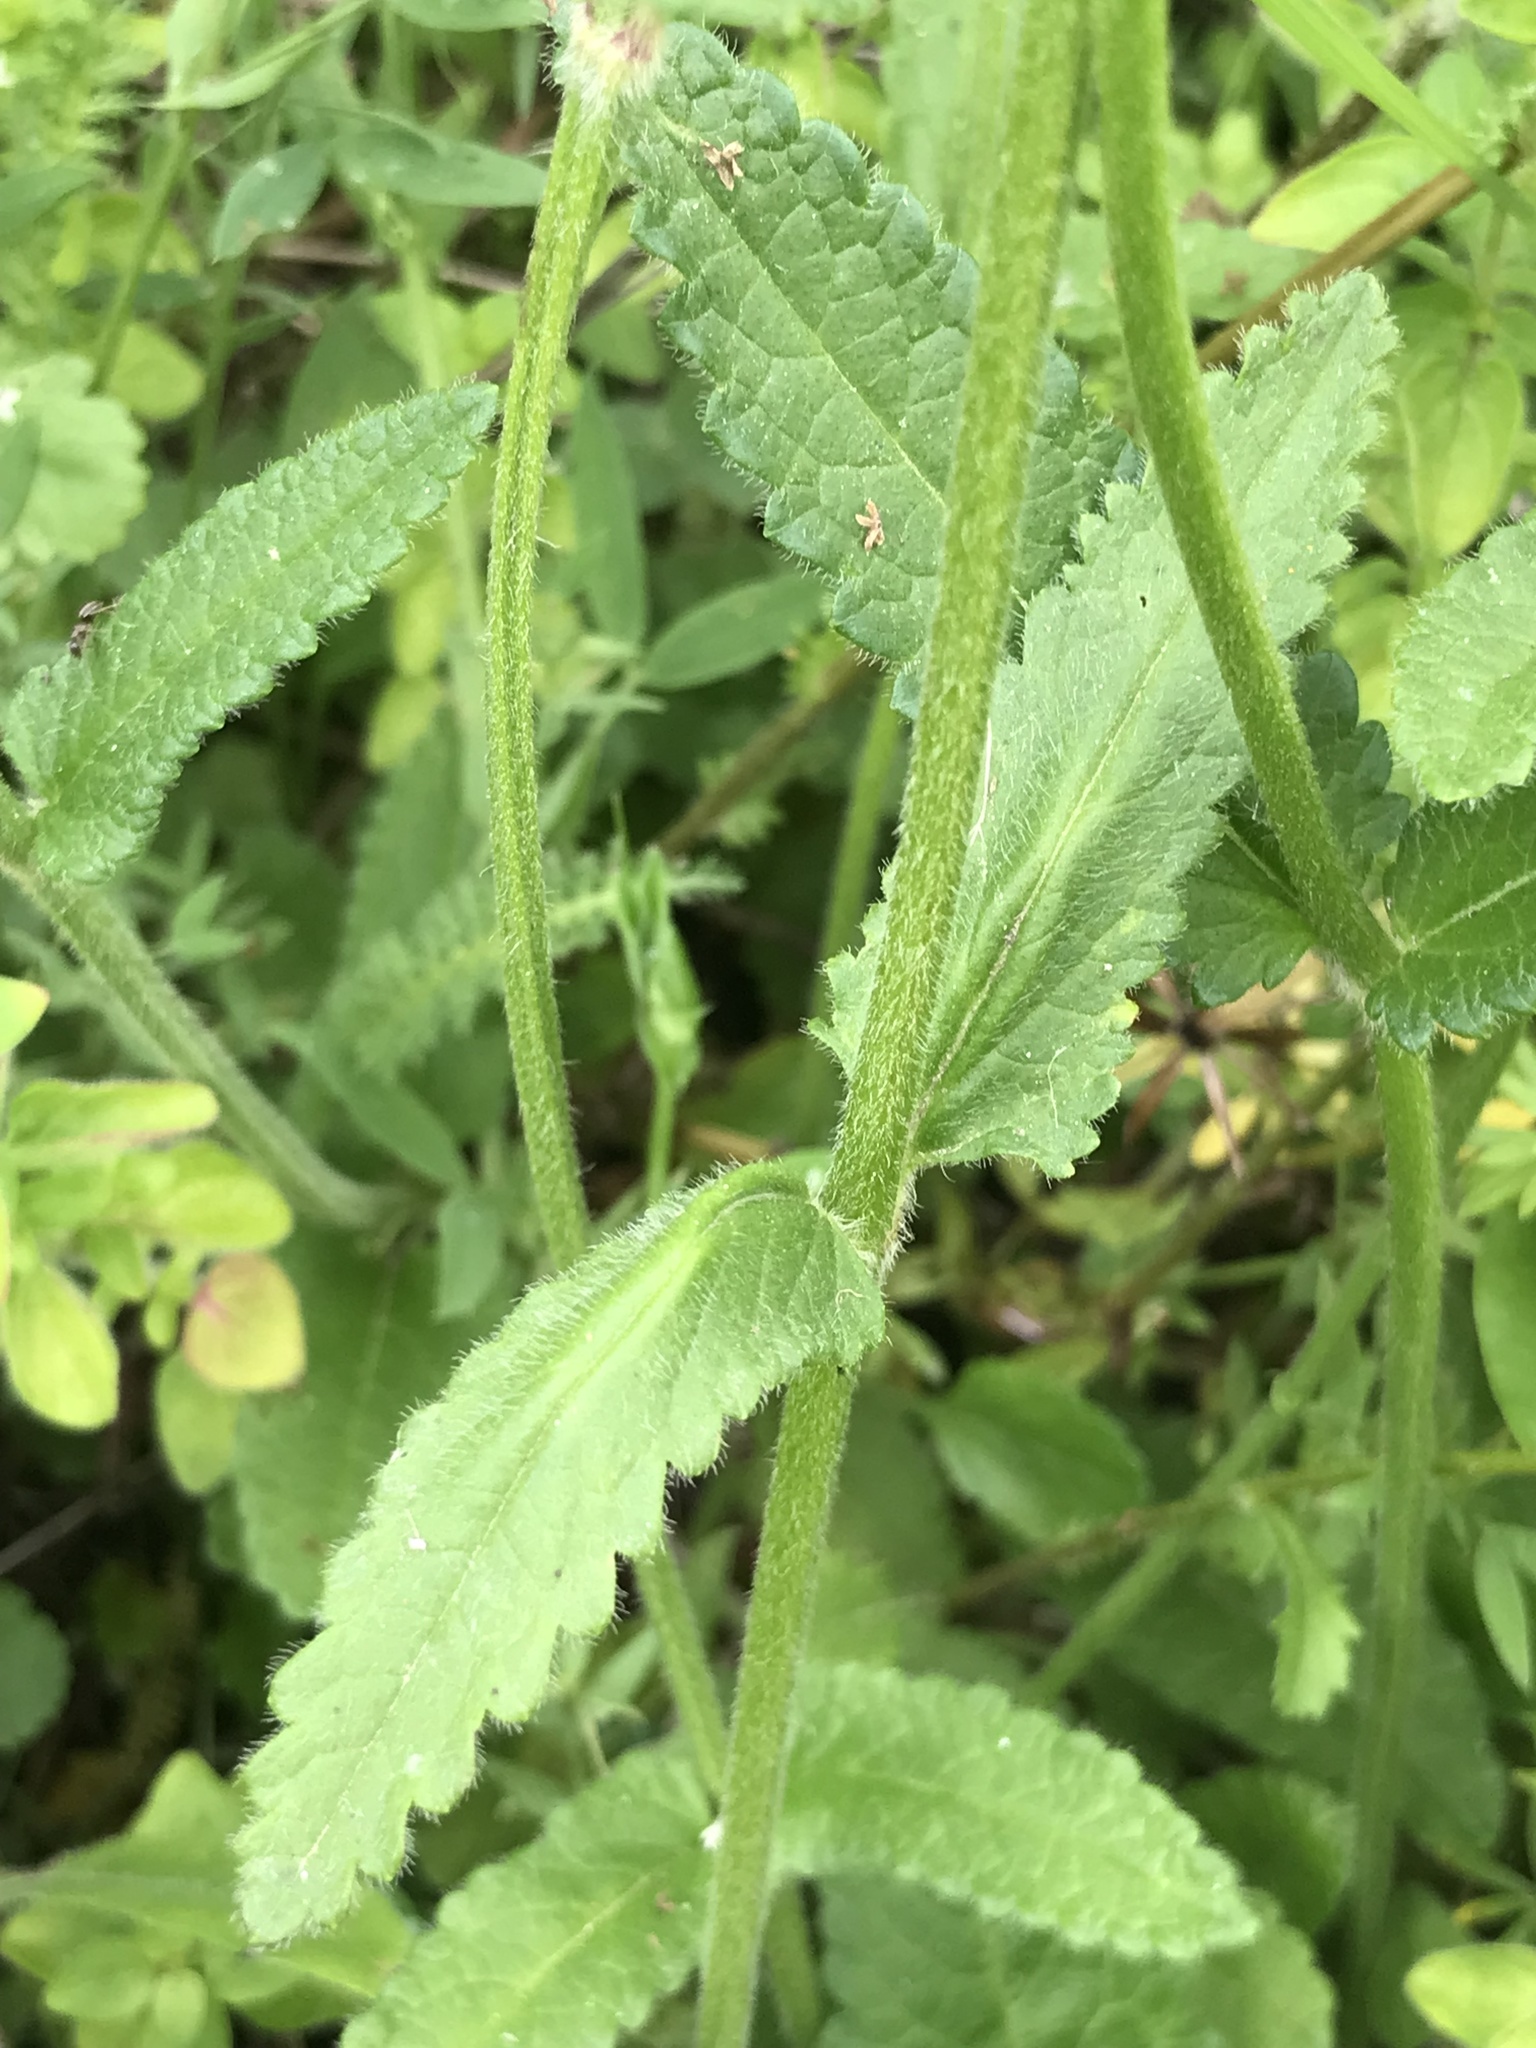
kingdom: Plantae
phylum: Tracheophyta
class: Magnoliopsida
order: Lamiales
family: Lamiaceae
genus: Betonica
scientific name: Betonica officinalis
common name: Bishop's-wort
